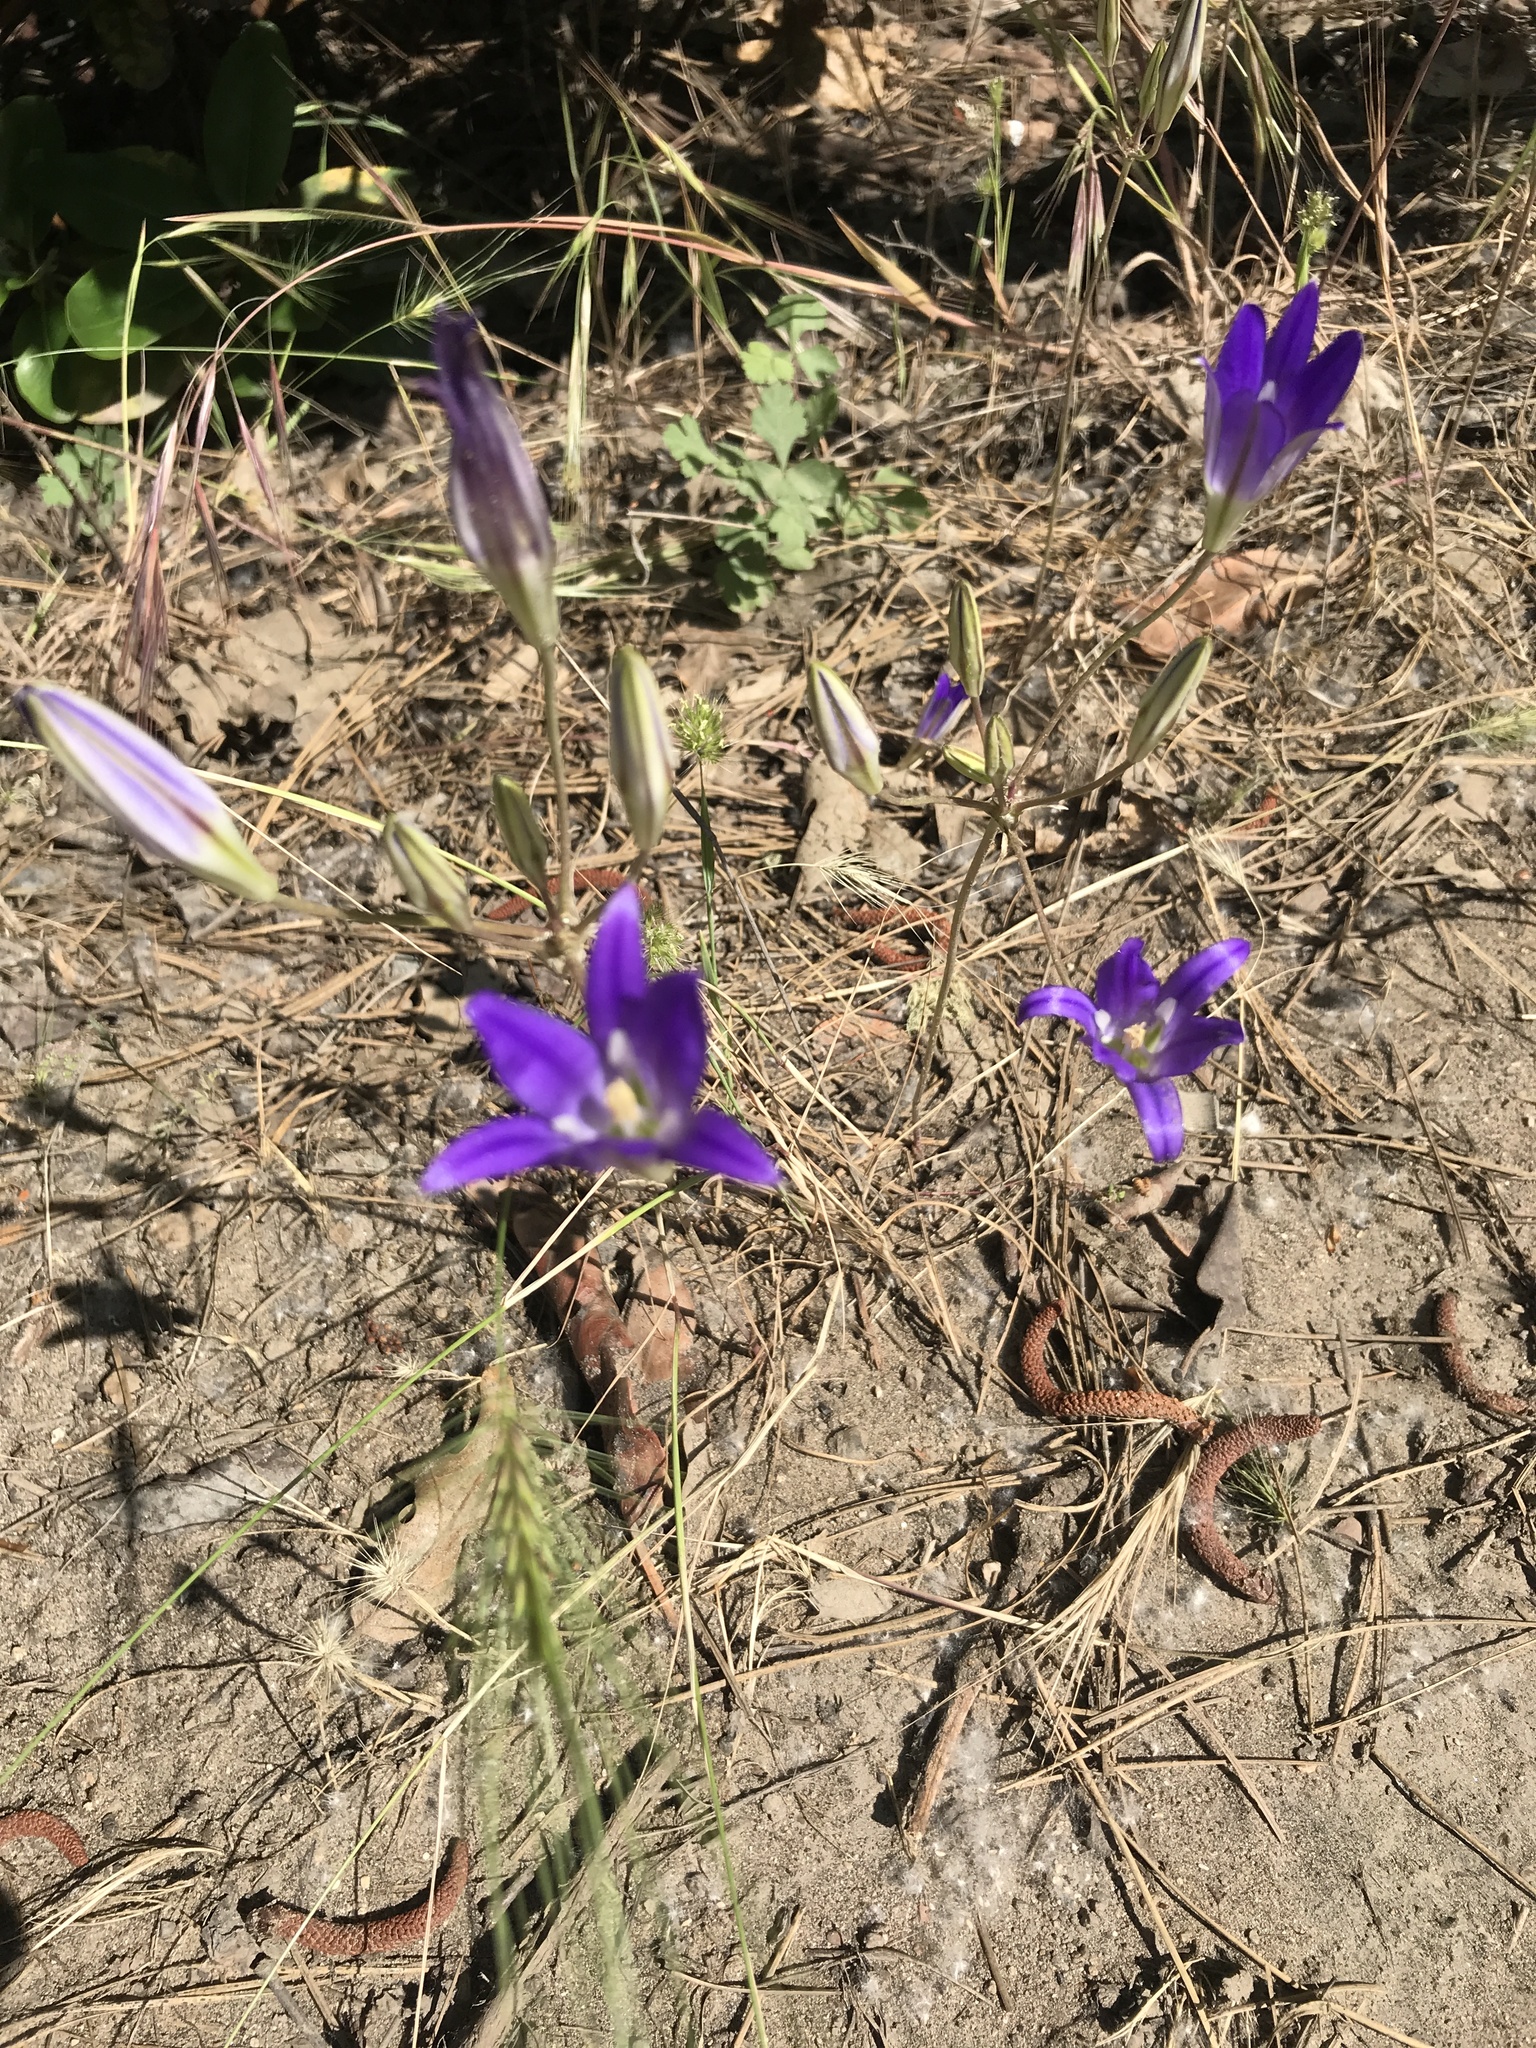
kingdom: Plantae
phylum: Tracheophyta
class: Liliopsida
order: Asparagales
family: Asparagaceae
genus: Brodiaea
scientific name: Brodiaea elegans
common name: Elegant cluster-lily
